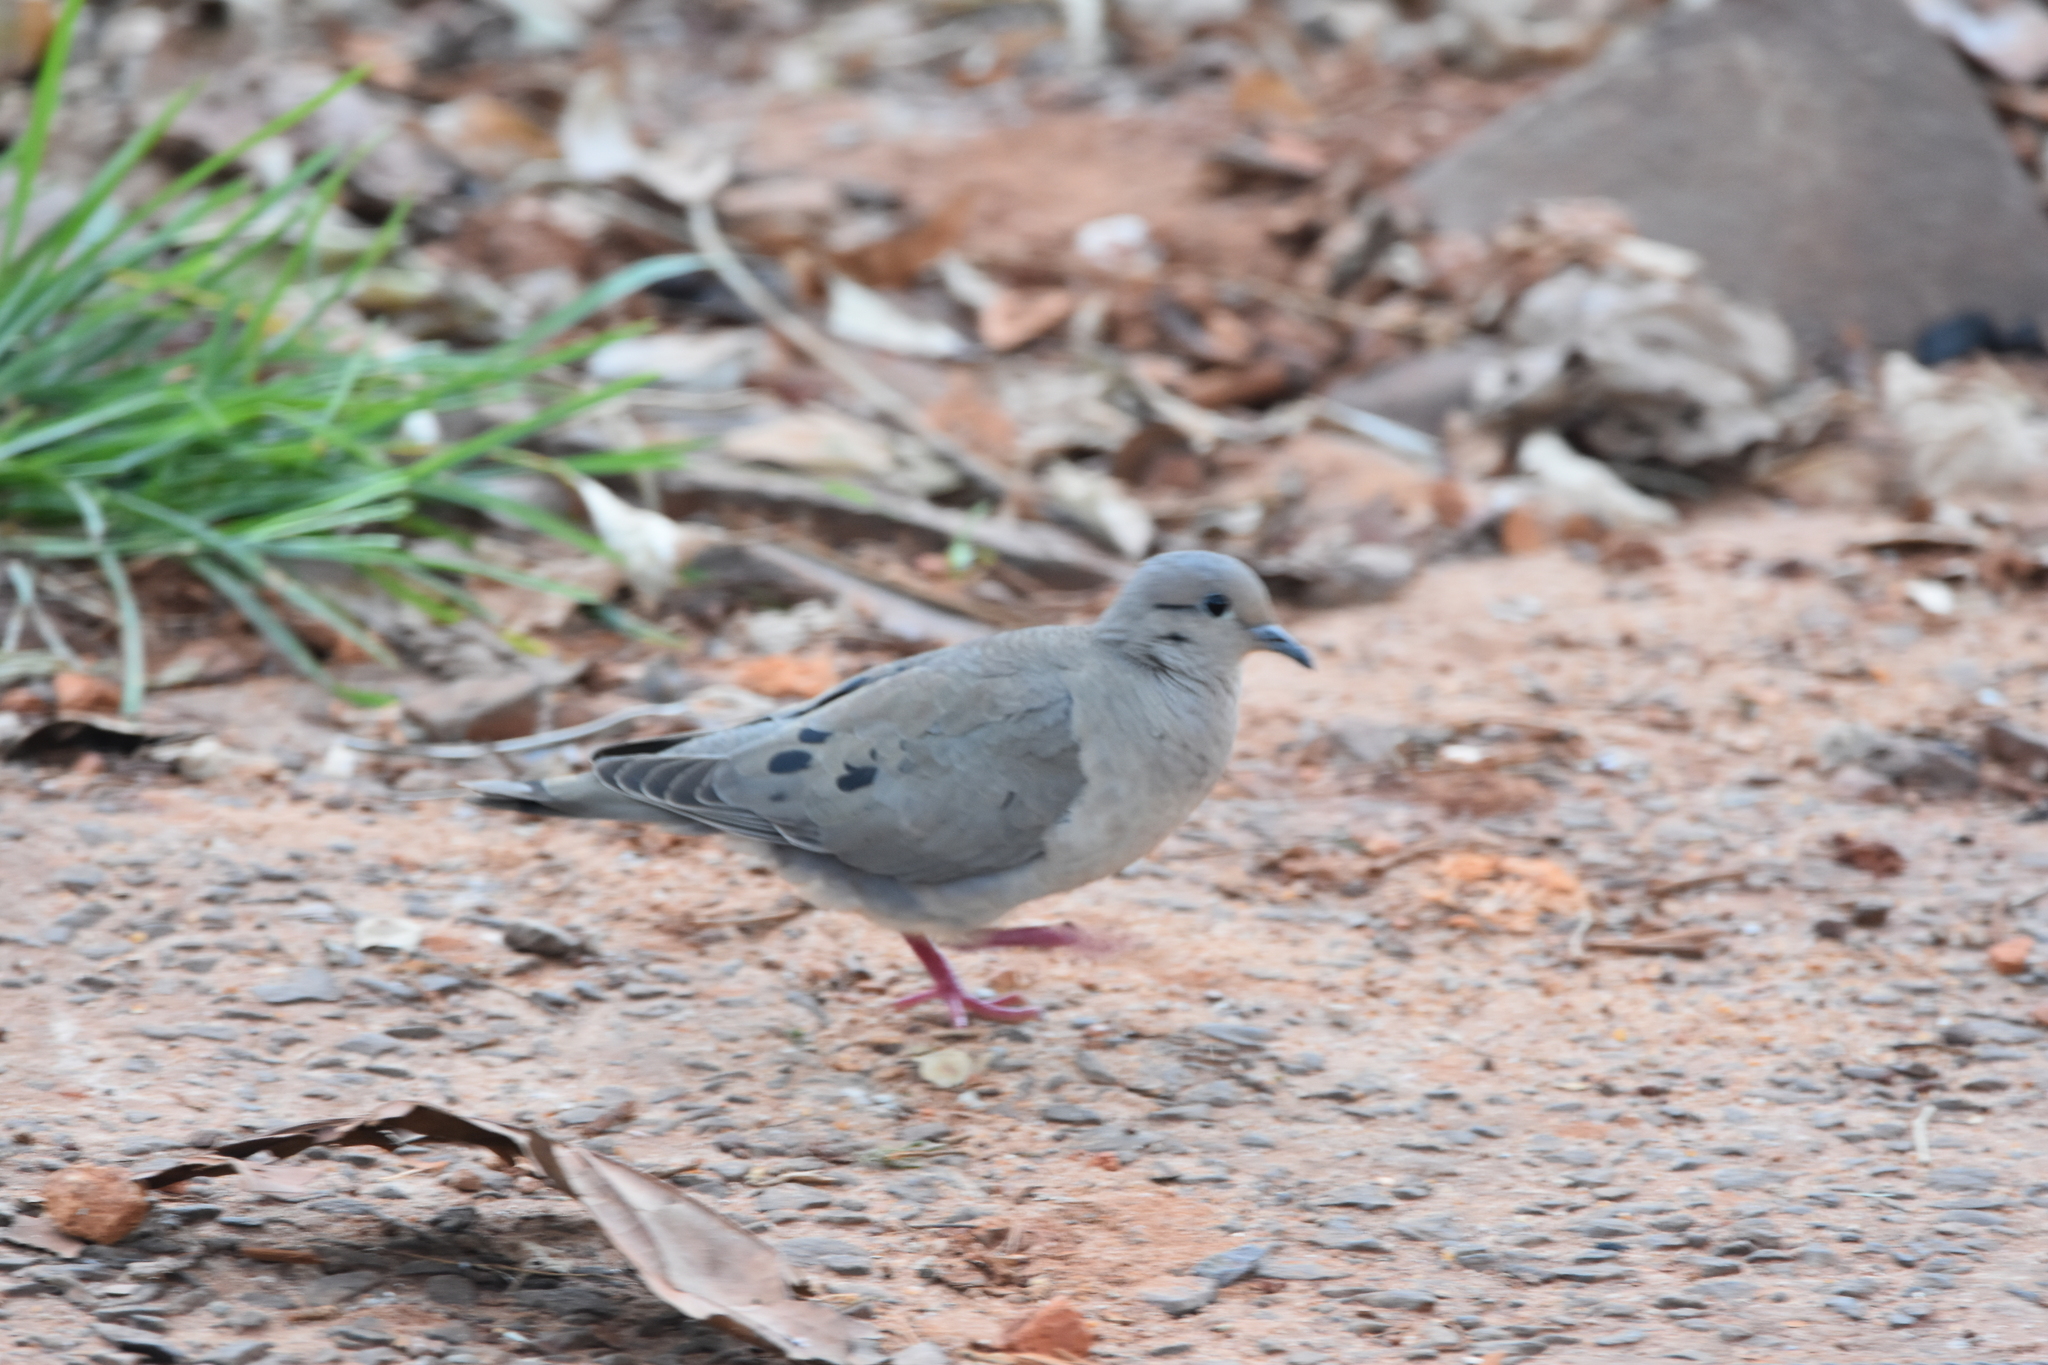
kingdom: Animalia
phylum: Chordata
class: Aves
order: Columbiformes
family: Columbidae
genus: Zenaida
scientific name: Zenaida auriculata
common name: Eared dove
